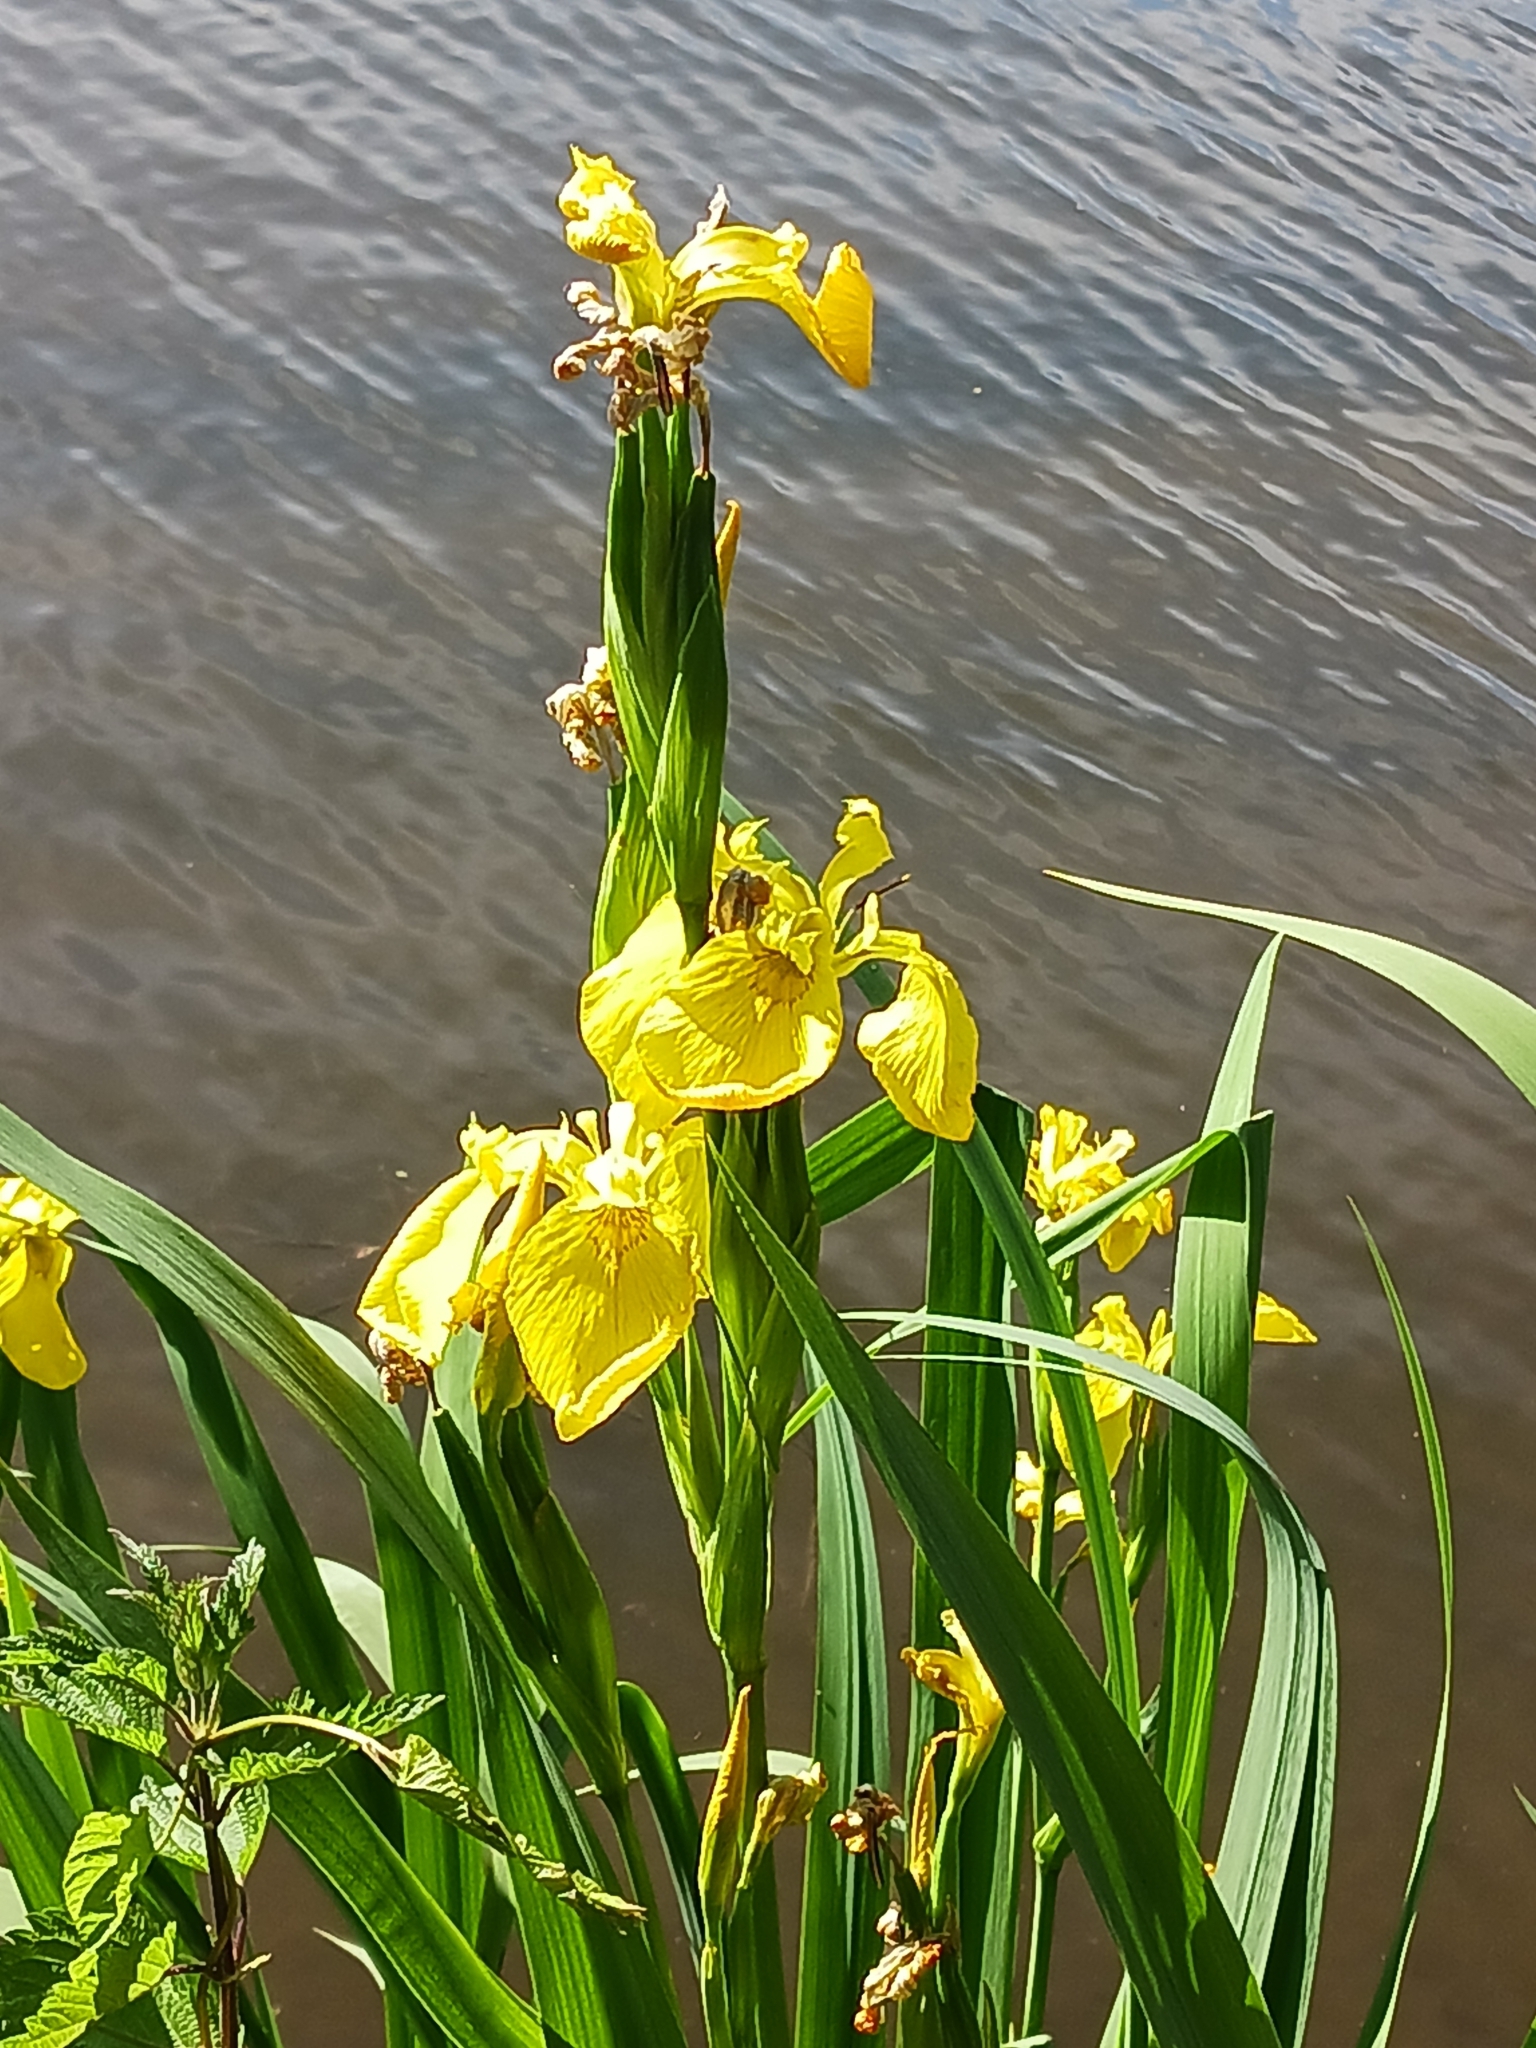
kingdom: Plantae
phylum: Tracheophyta
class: Liliopsida
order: Asparagales
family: Iridaceae
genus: Iris
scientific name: Iris pseudacorus
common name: Yellow flag
